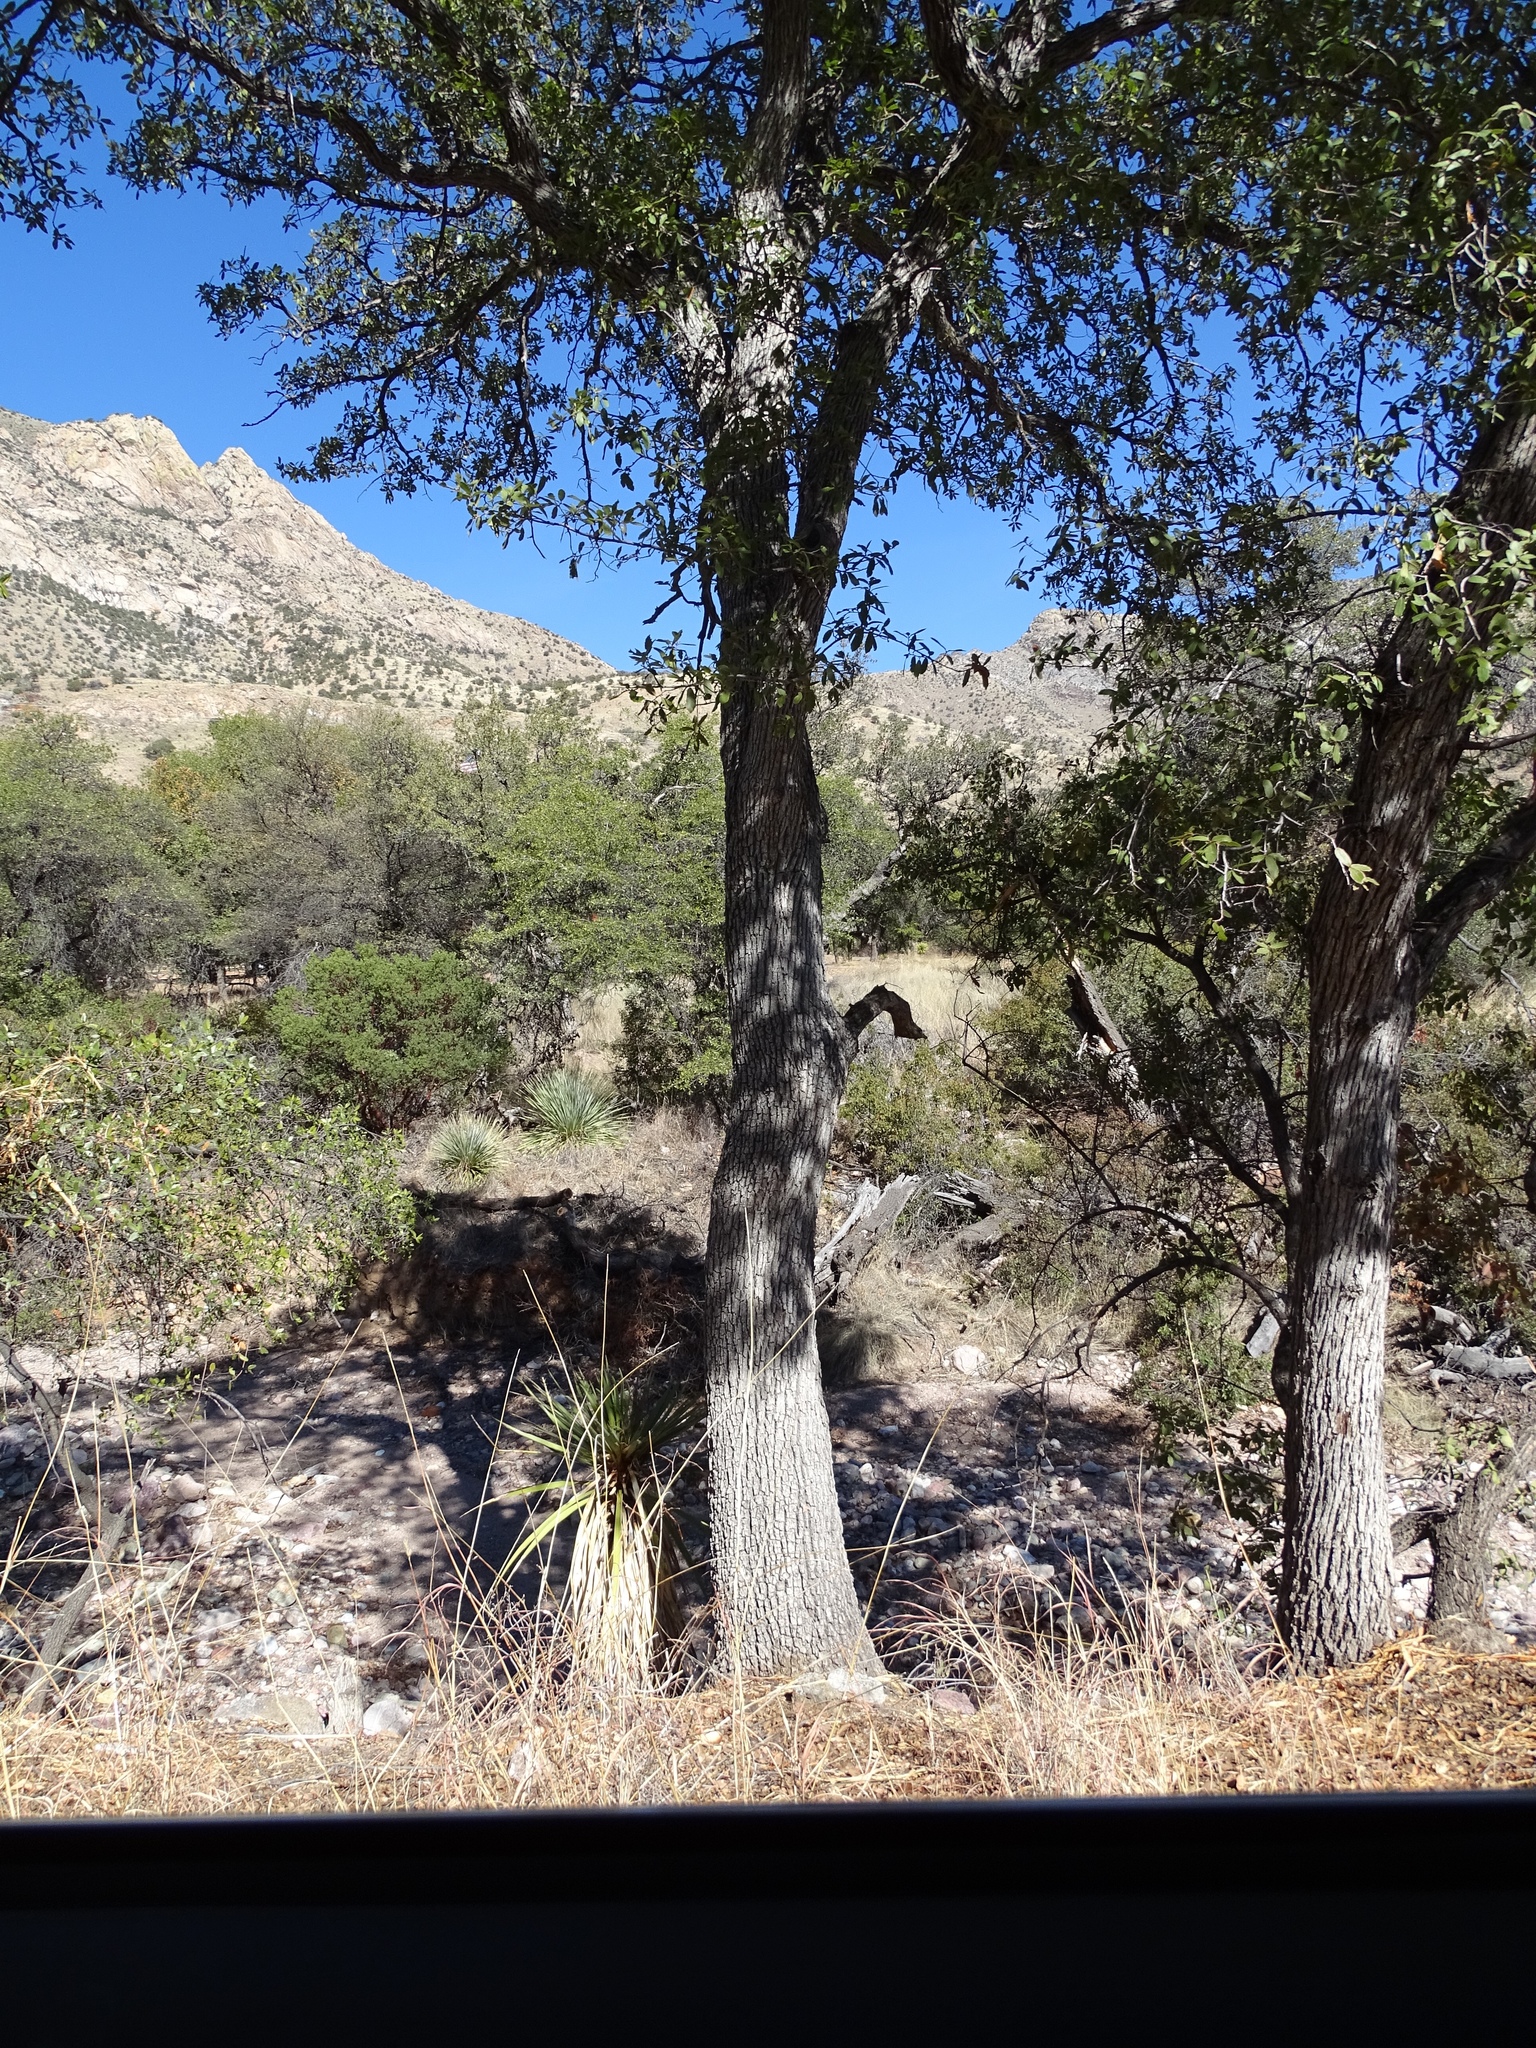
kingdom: Plantae
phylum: Tracheophyta
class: Magnoliopsida
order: Fagales
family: Fagaceae
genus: Quercus
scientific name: Quercus arizonica
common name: Arizona white oak
